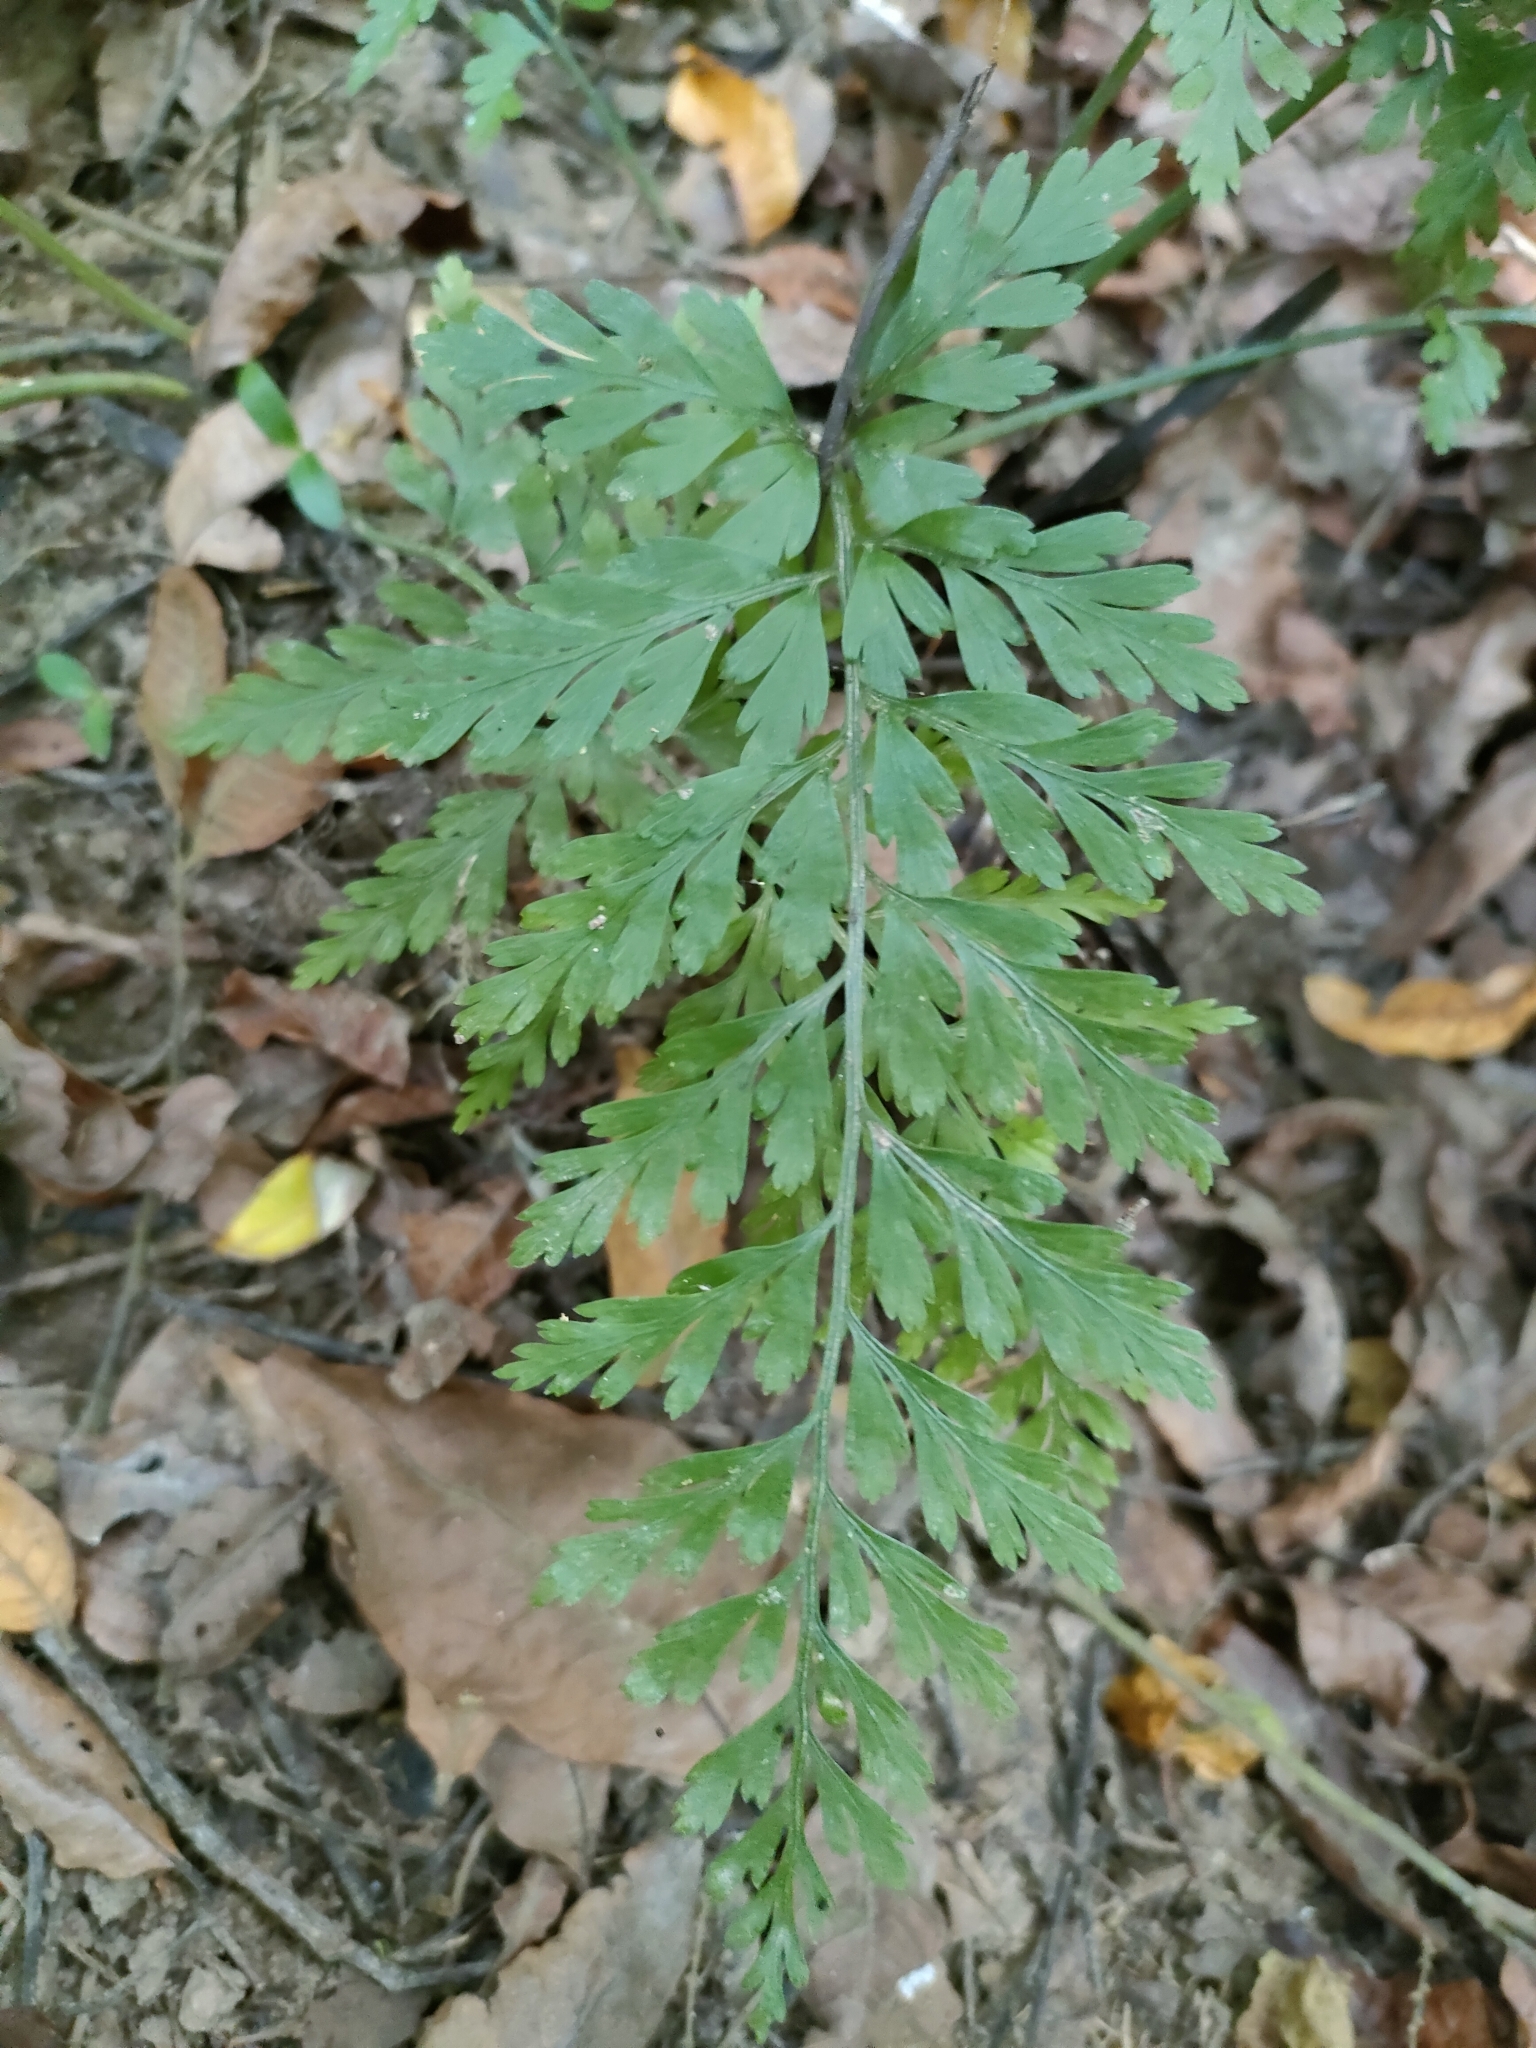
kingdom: Plantae
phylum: Tracheophyta
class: Polypodiopsida
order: Polypodiales
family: Aspleniaceae
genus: Asplenium
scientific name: Asplenium
